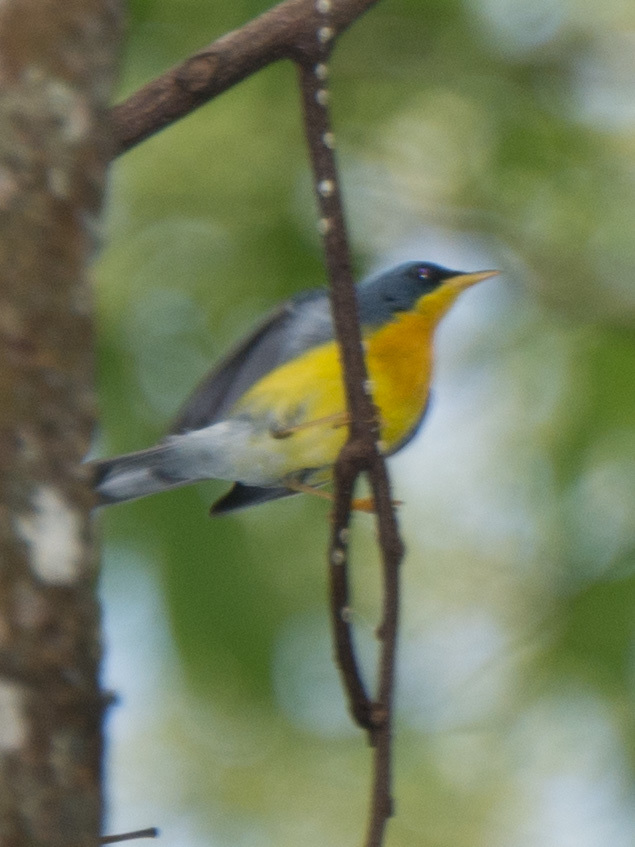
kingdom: Animalia
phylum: Chordata
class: Aves
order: Passeriformes
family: Parulidae
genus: Setophaga
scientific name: Setophaga pitiayumi
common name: Tropical parula
